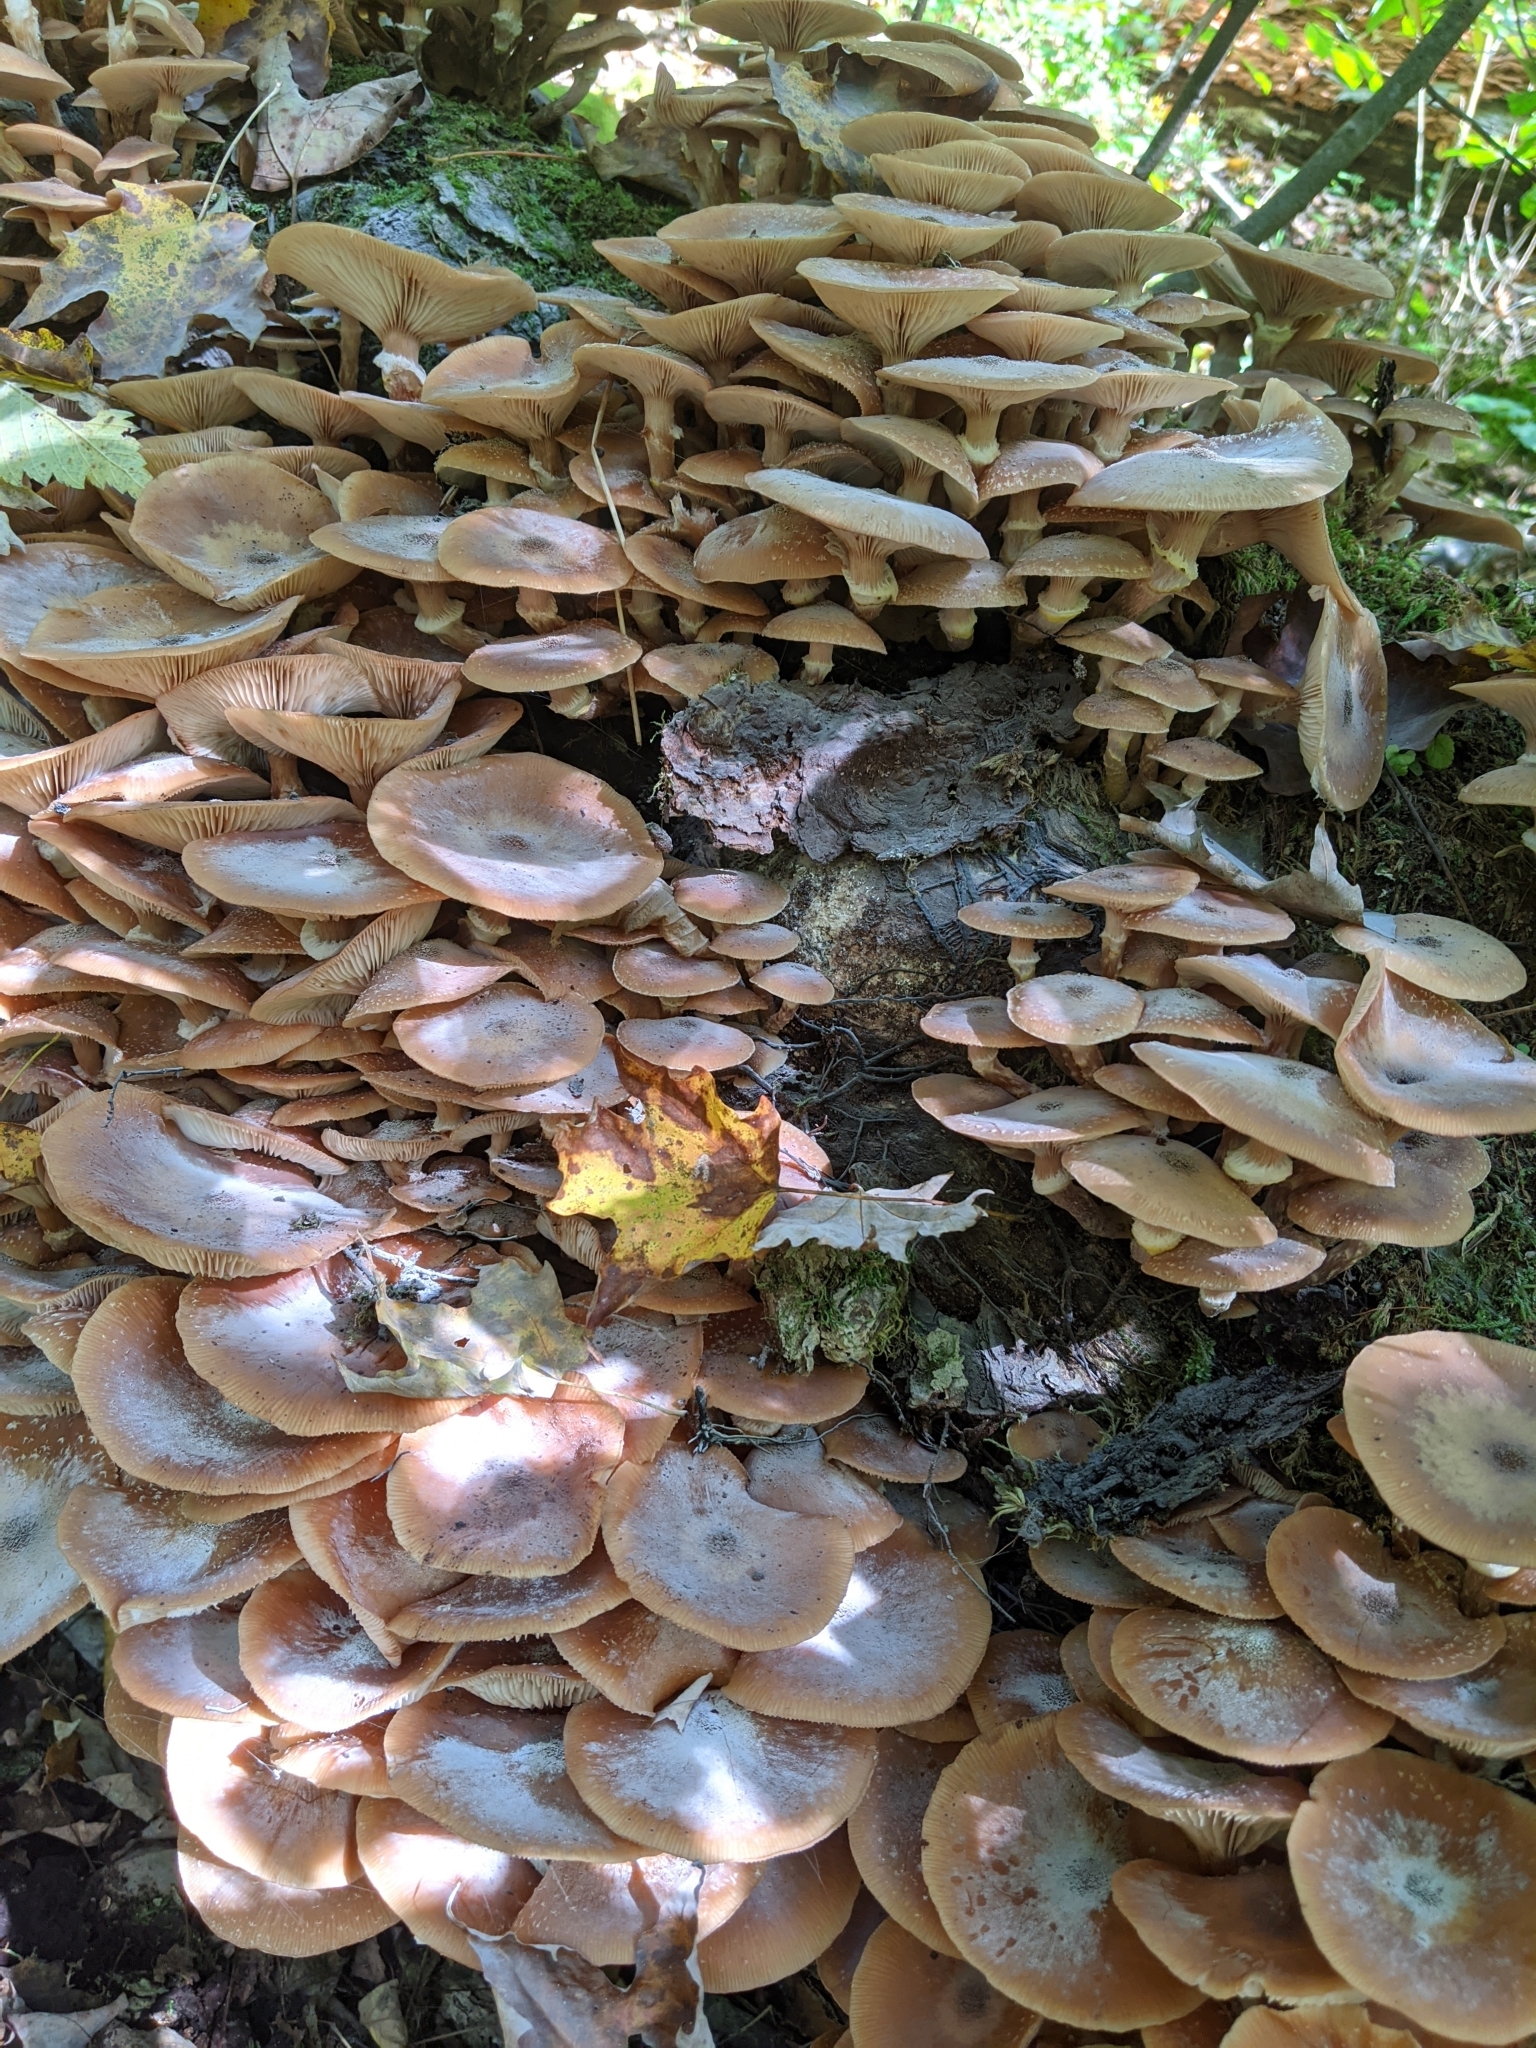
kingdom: Fungi
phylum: Basidiomycota
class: Agaricomycetes
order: Agaricales
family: Physalacriaceae
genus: Armillaria
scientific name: Armillaria mellea
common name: Honey fungus
